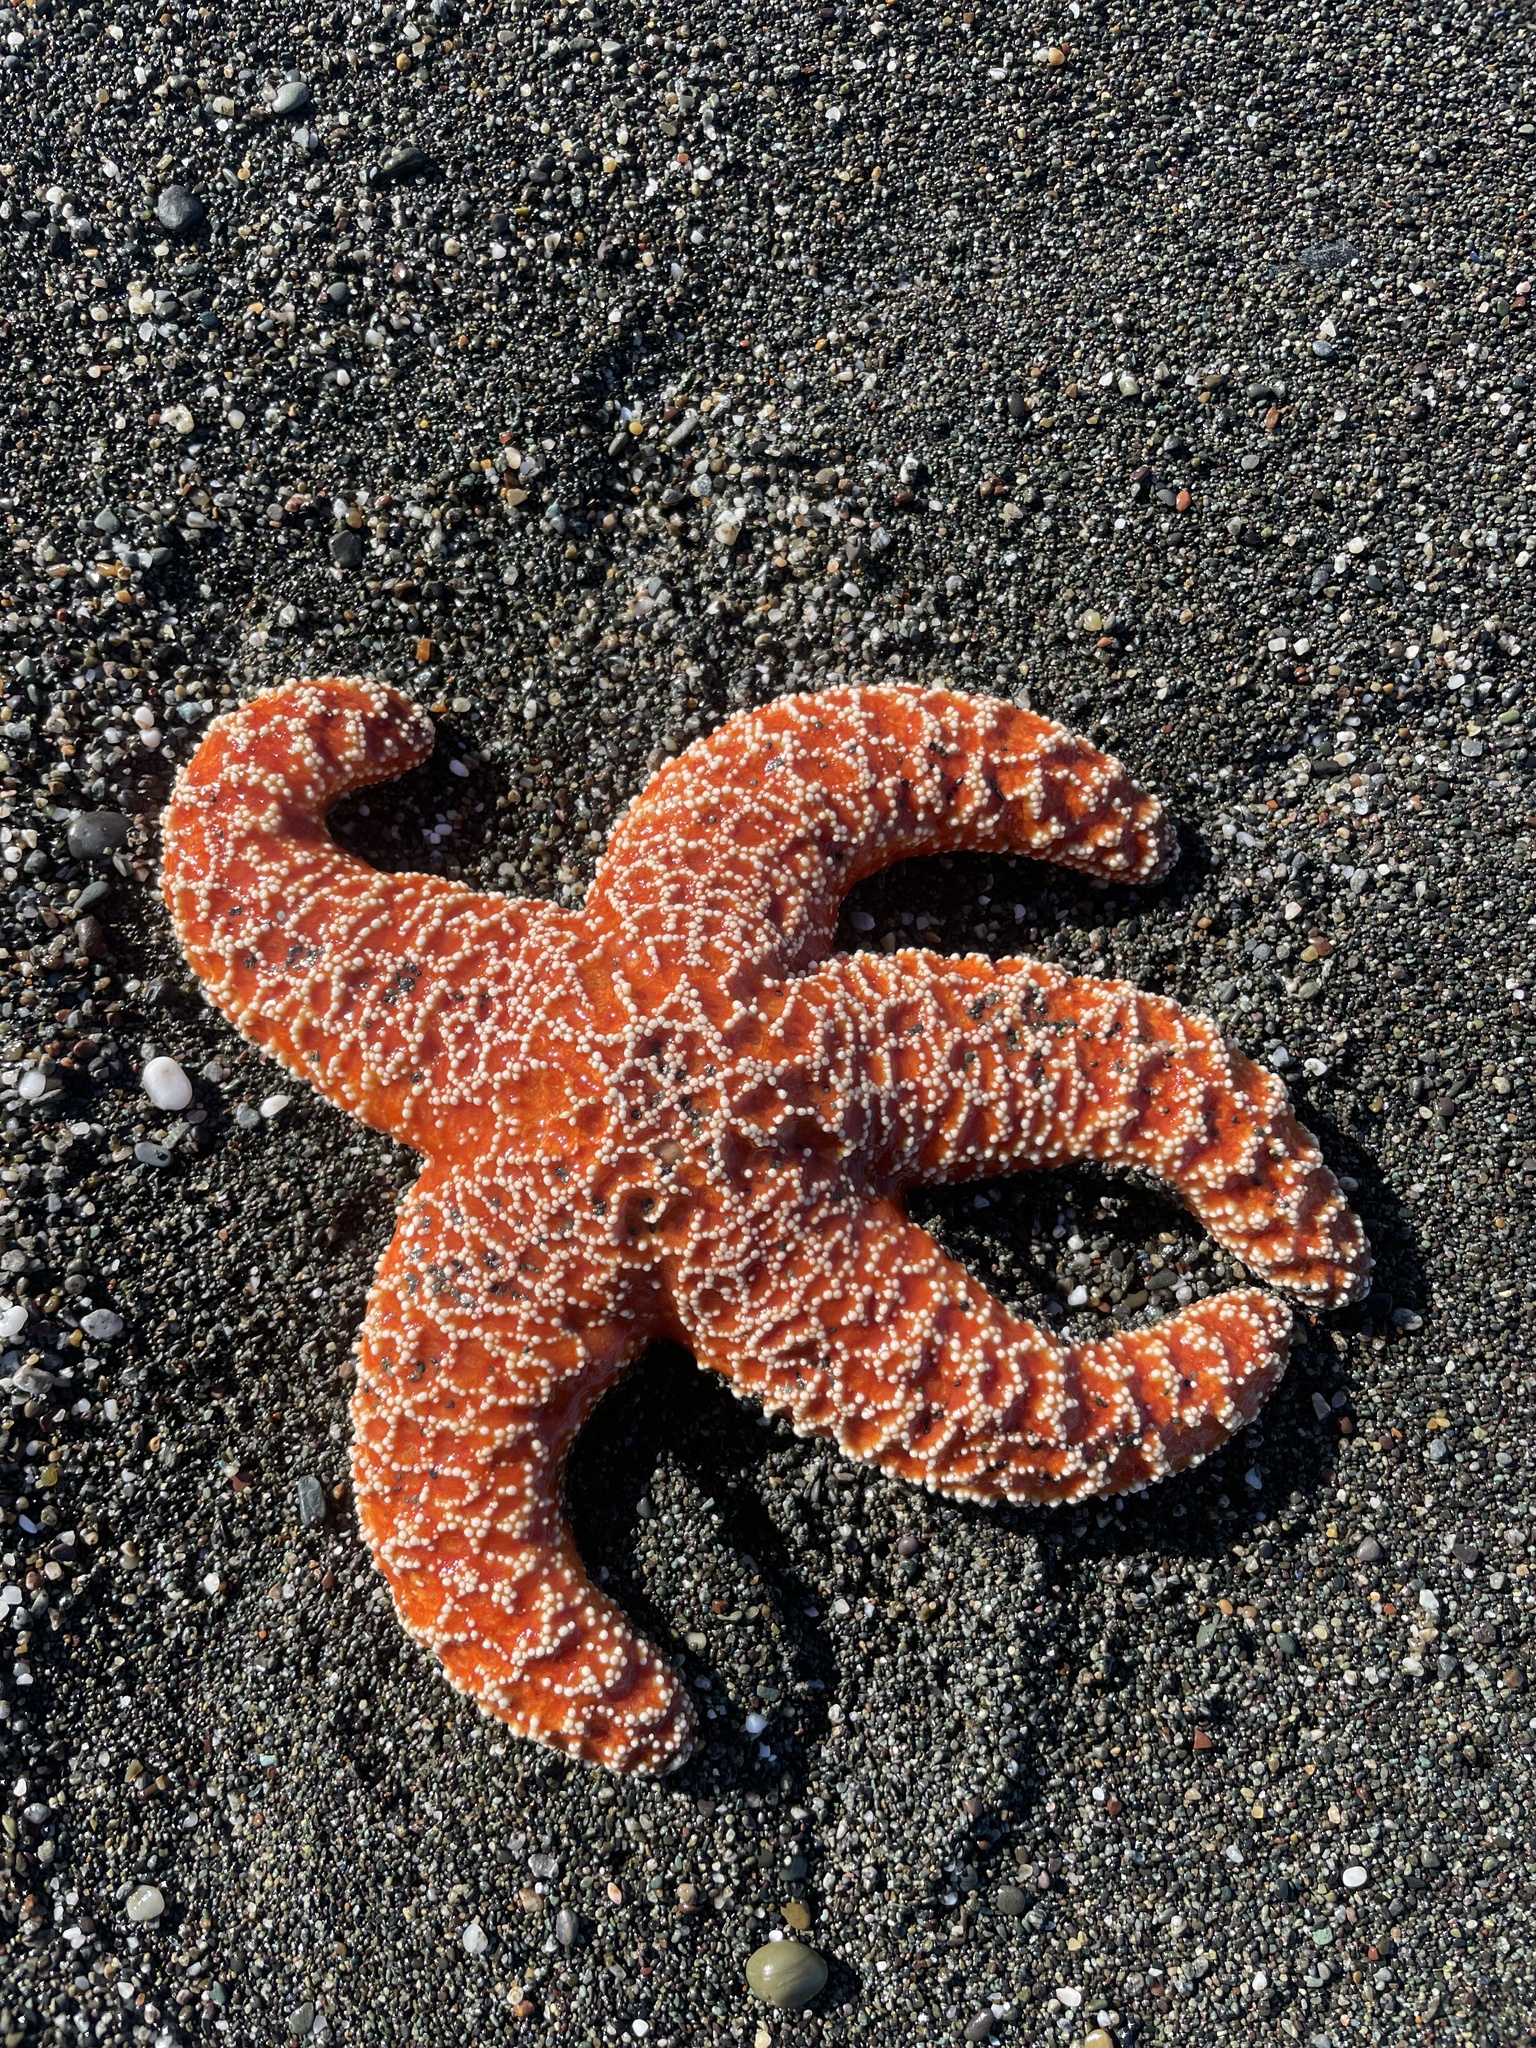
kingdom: Animalia
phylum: Echinodermata
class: Asteroidea
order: Forcipulatida
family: Asteriidae
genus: Pisaster
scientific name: Pisaster ochraceus
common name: Ochre stars
